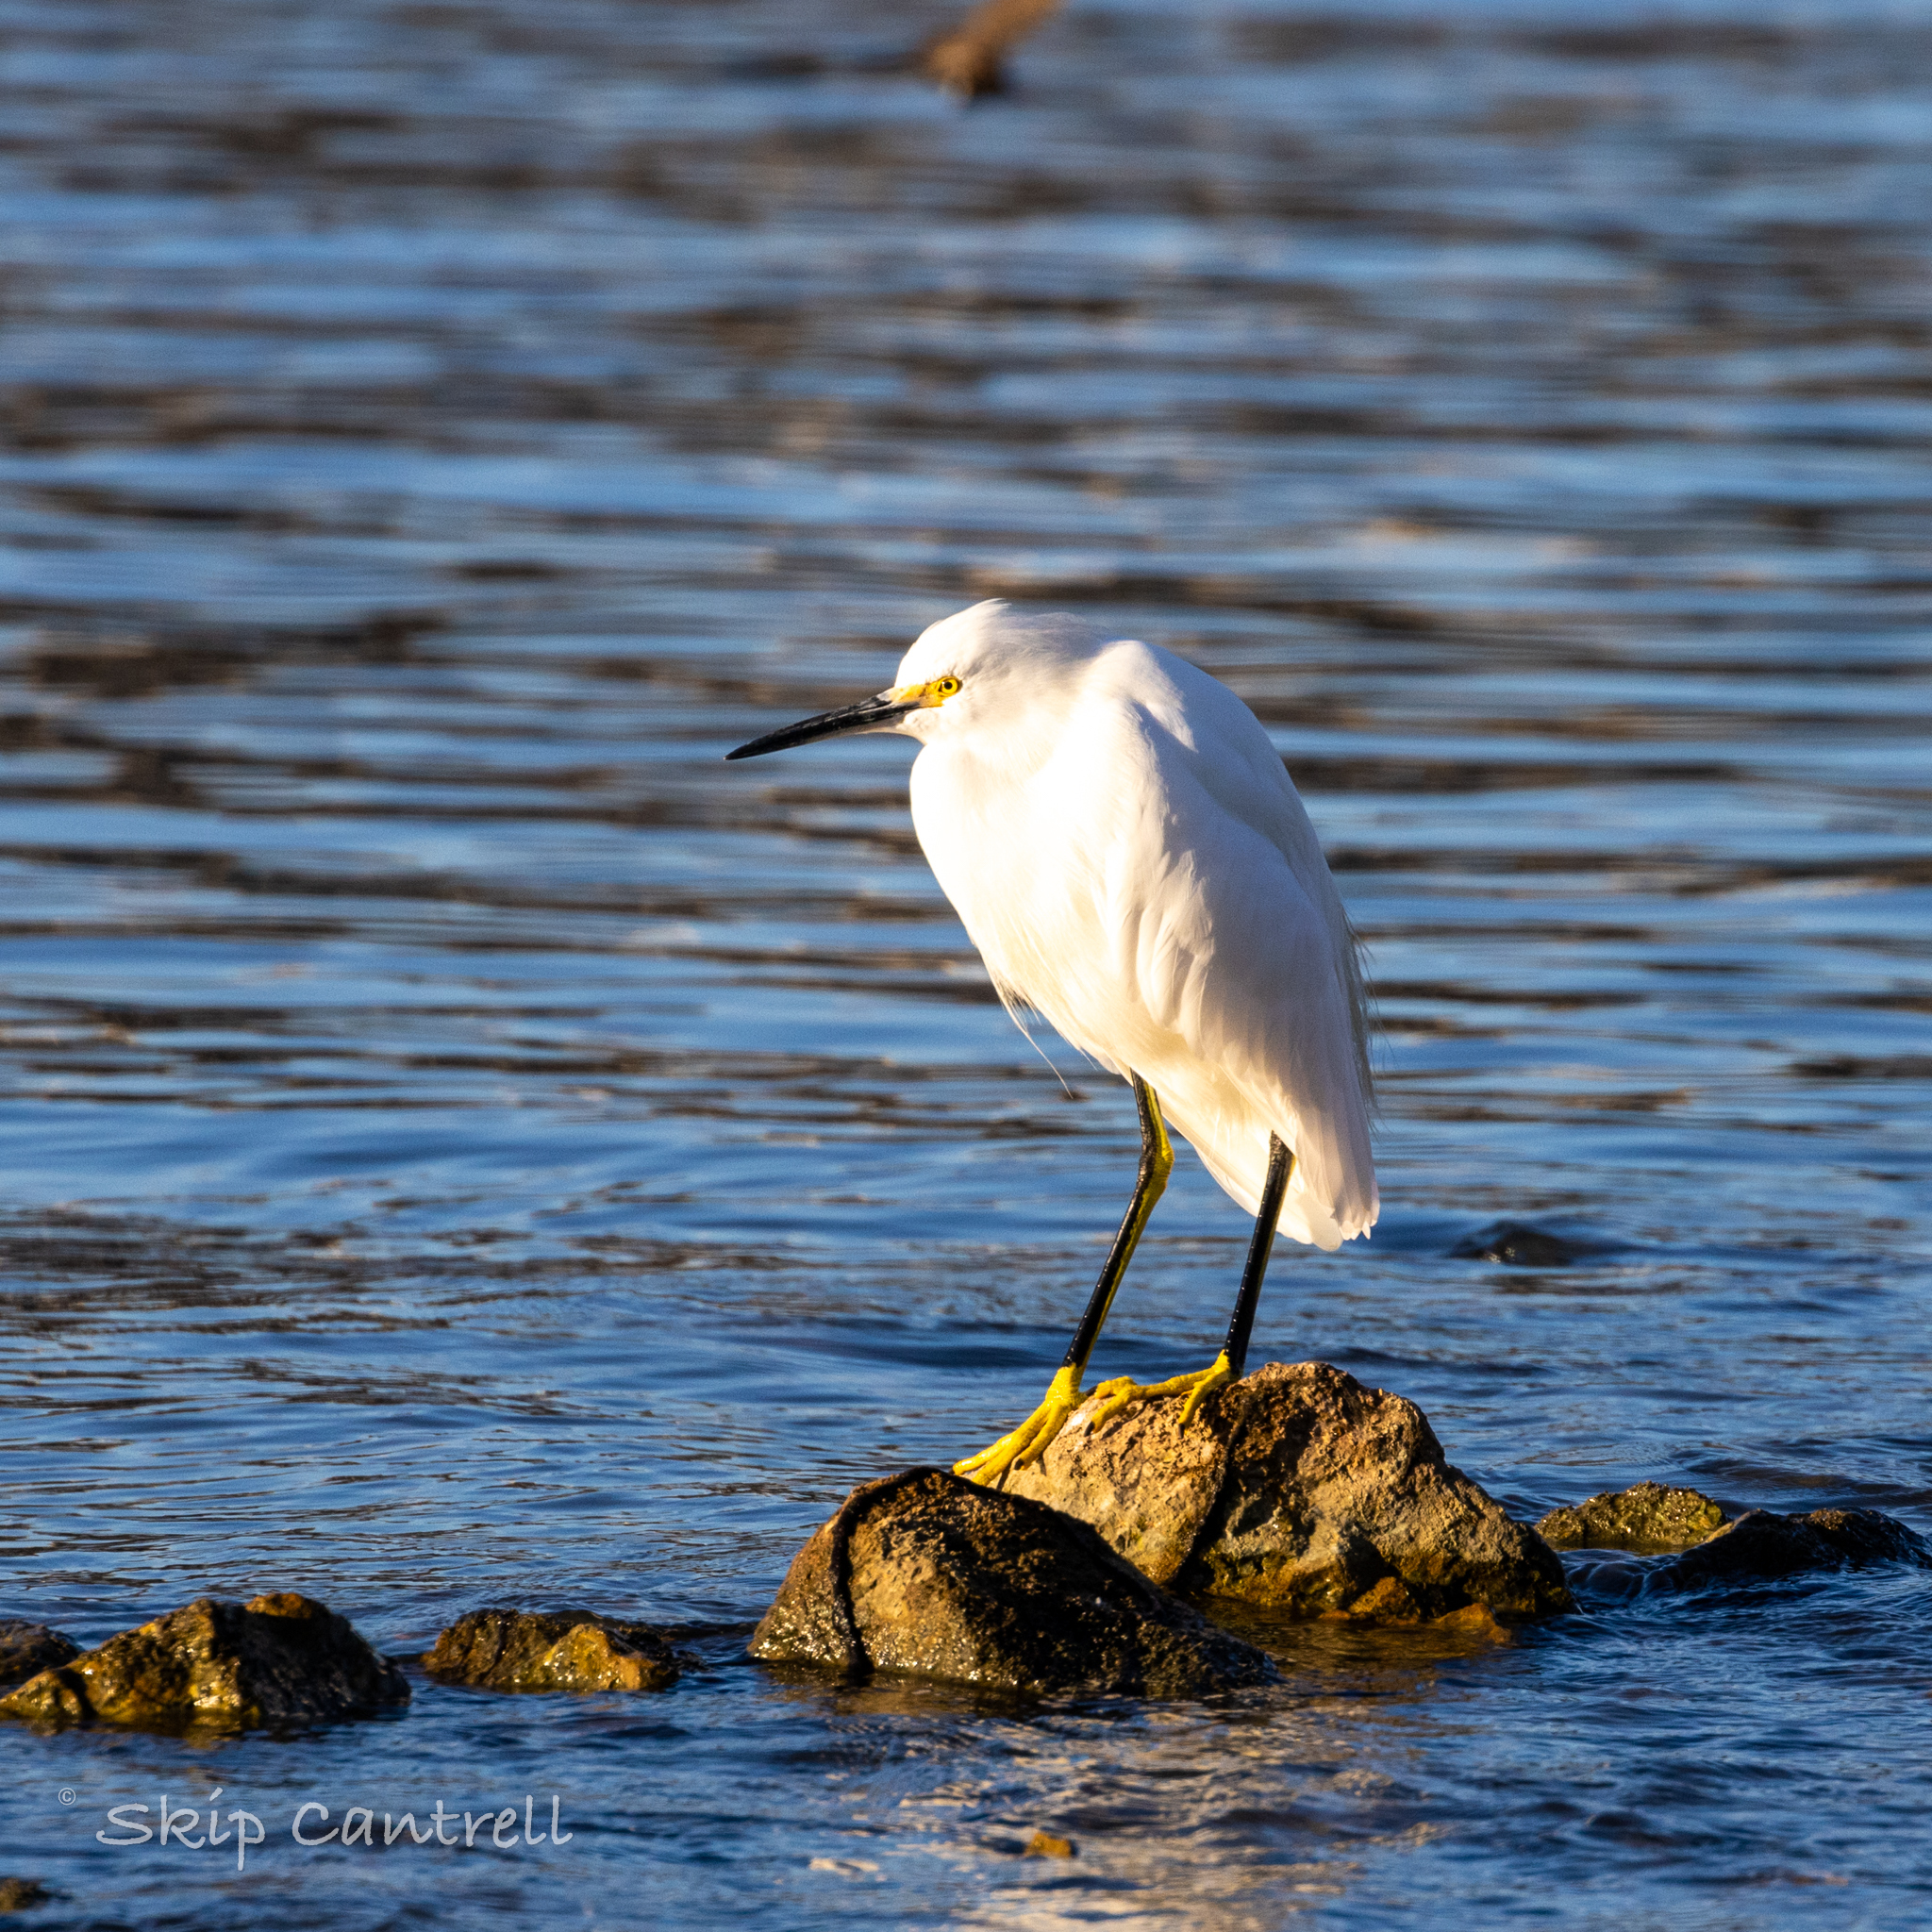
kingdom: Animalia
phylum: Chordata
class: Aves
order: Pelecaniformes
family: Ardeidae
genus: Egretta
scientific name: Egretta thula
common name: Snowy egret
